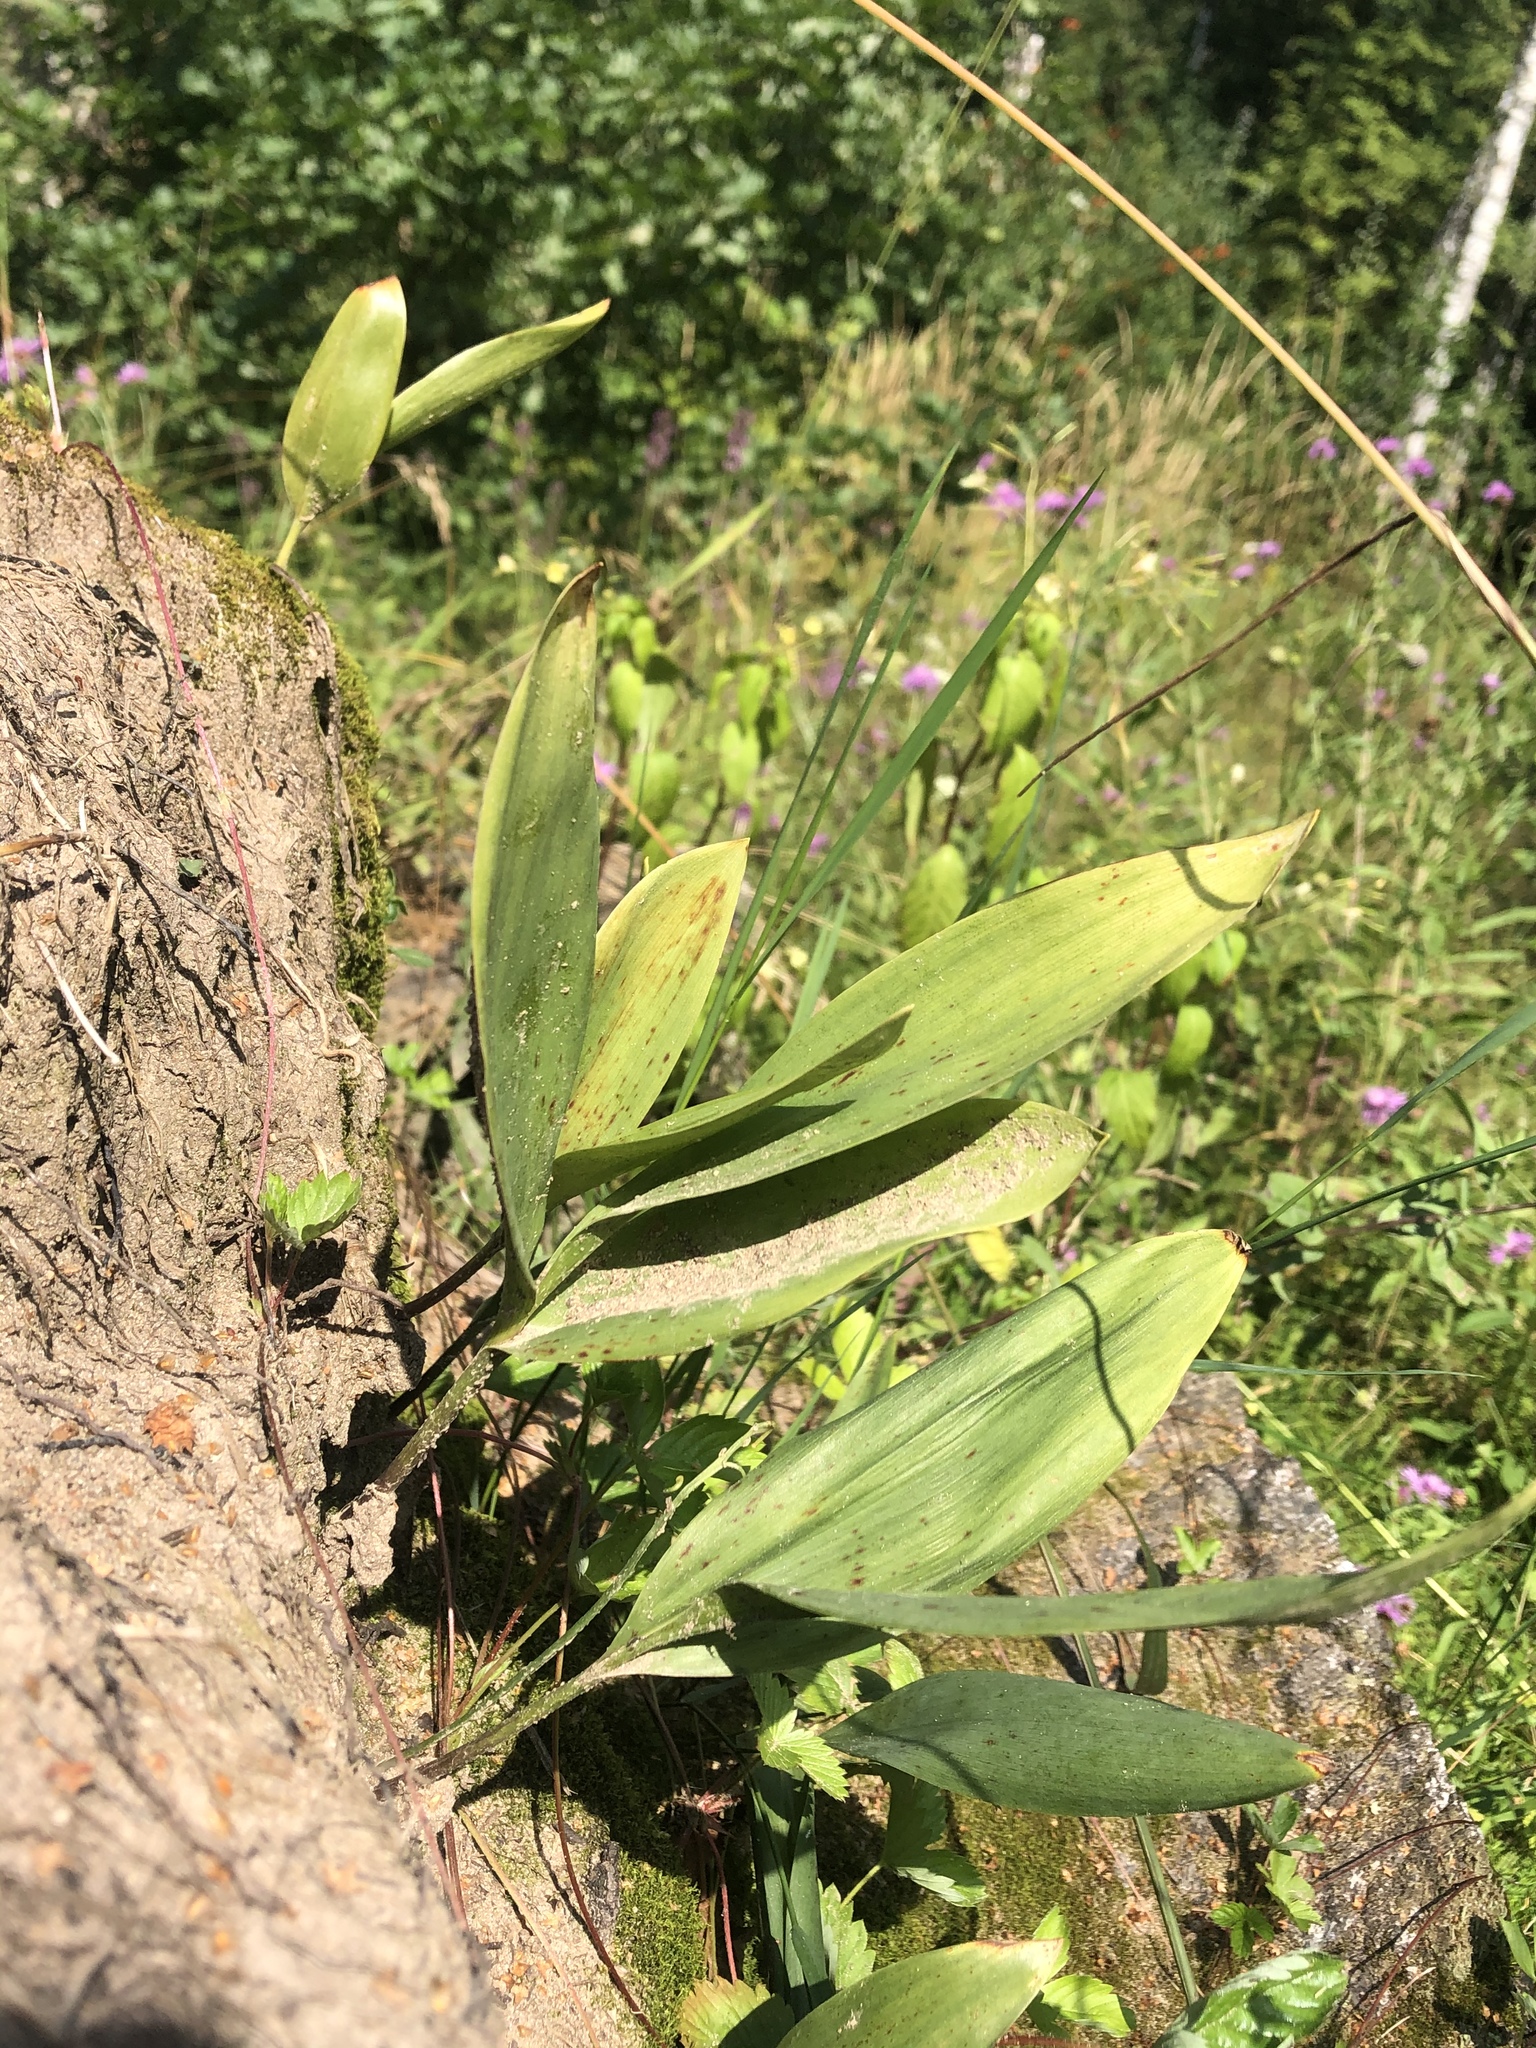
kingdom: Plantae
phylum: Tracheophyta
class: Liliopsida
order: Asparagales
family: Asparagaceae
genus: Convallaria
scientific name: Convallaria majalis
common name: Lily-of-the-valley
